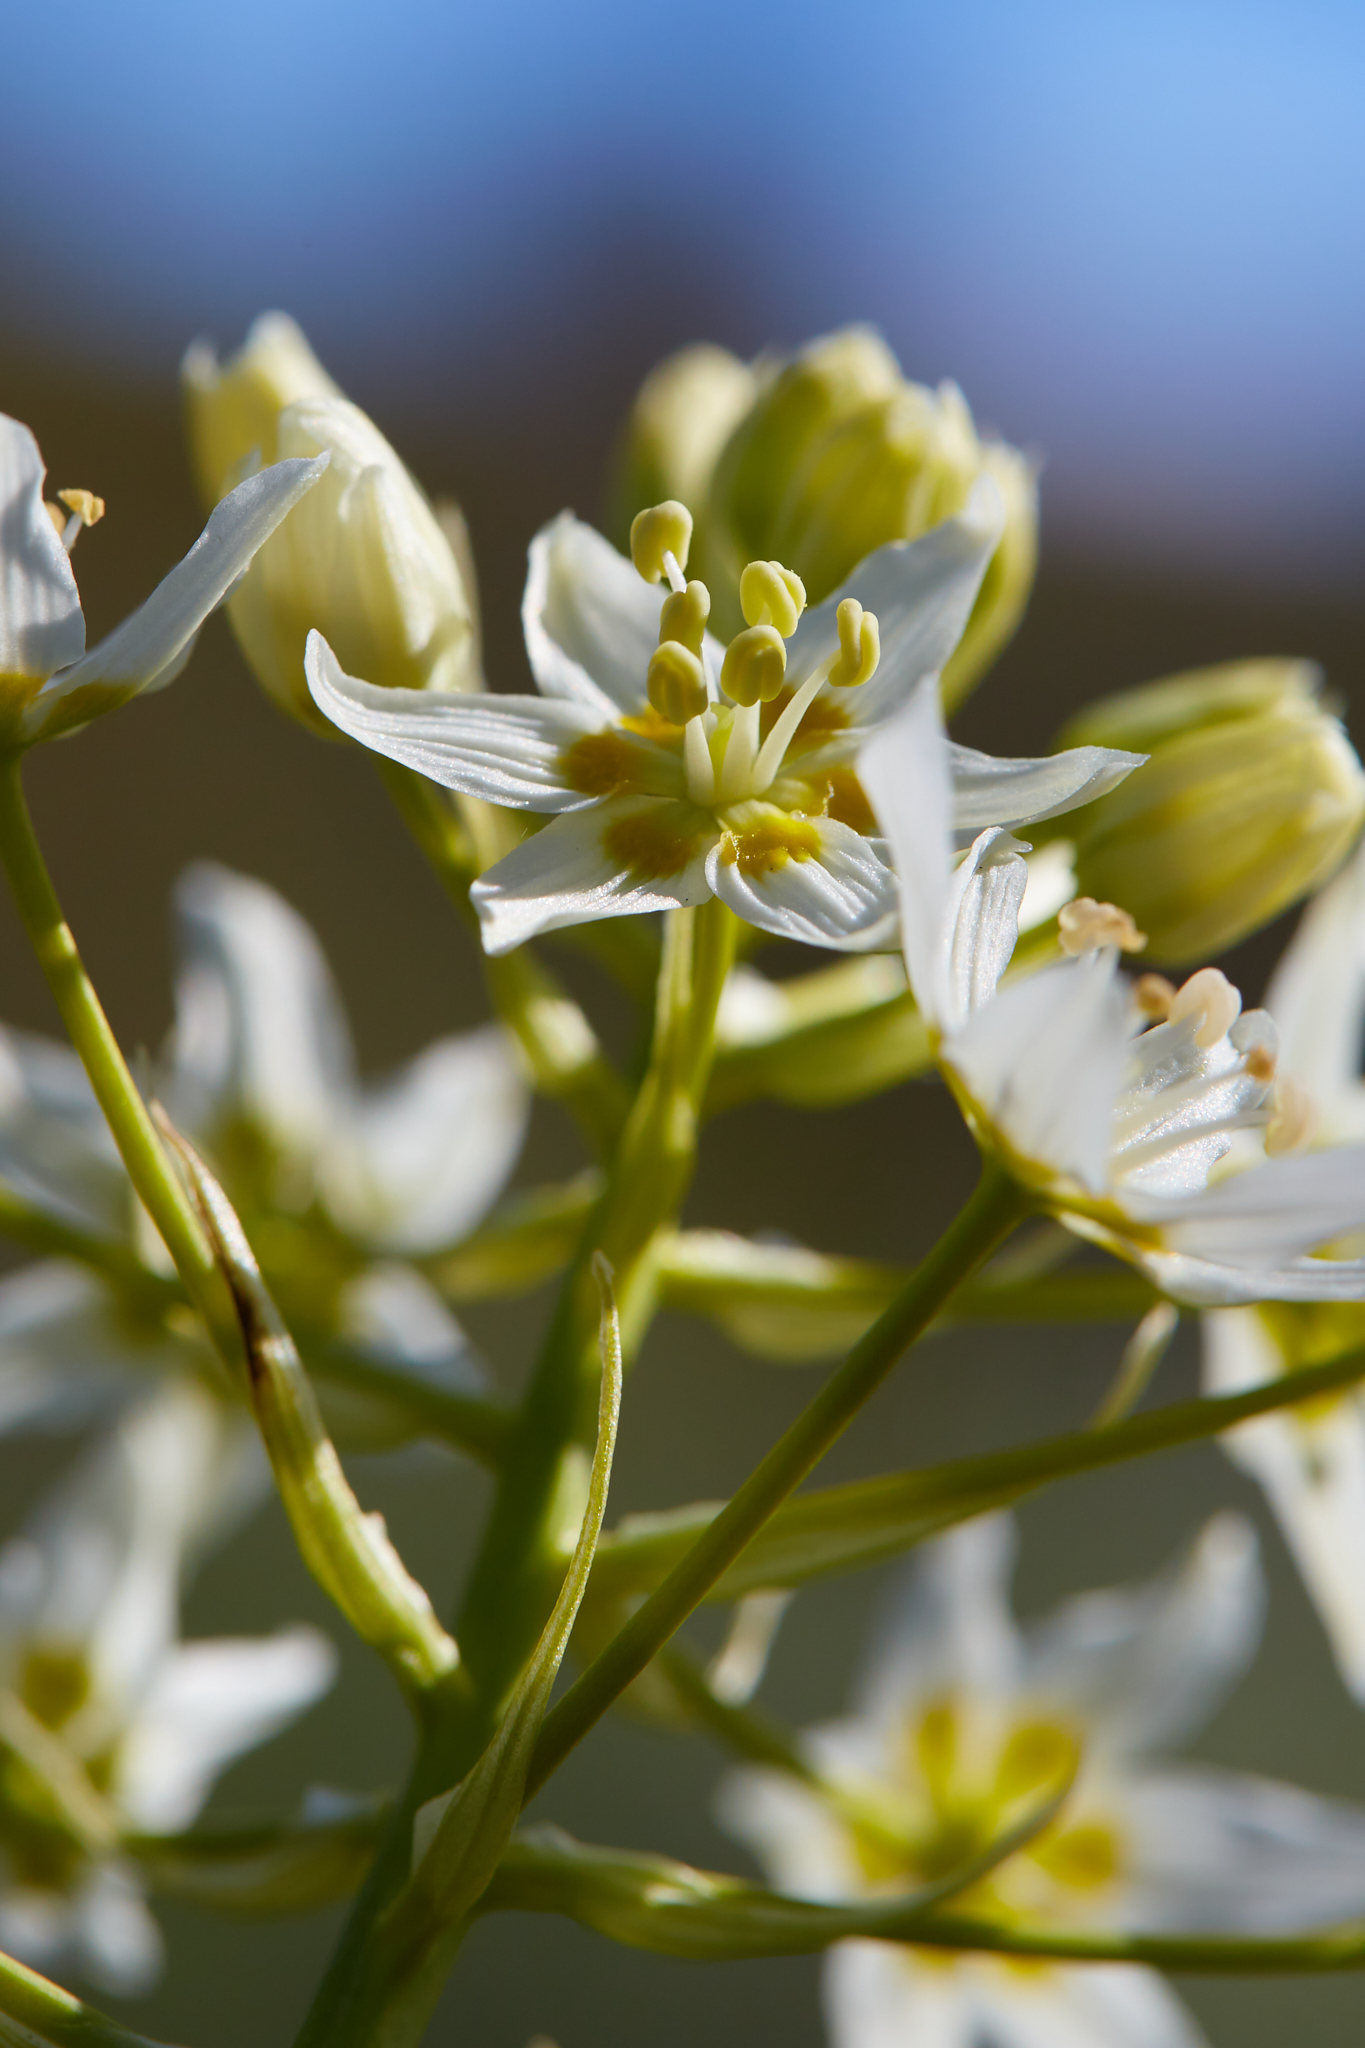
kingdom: Plantae
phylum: Tracheophyta
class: Liliopsida
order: Liliales
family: Melanthiaceae
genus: Toxicoscordion
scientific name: Toxicoscordion fremontii
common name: Fremont's death camas
